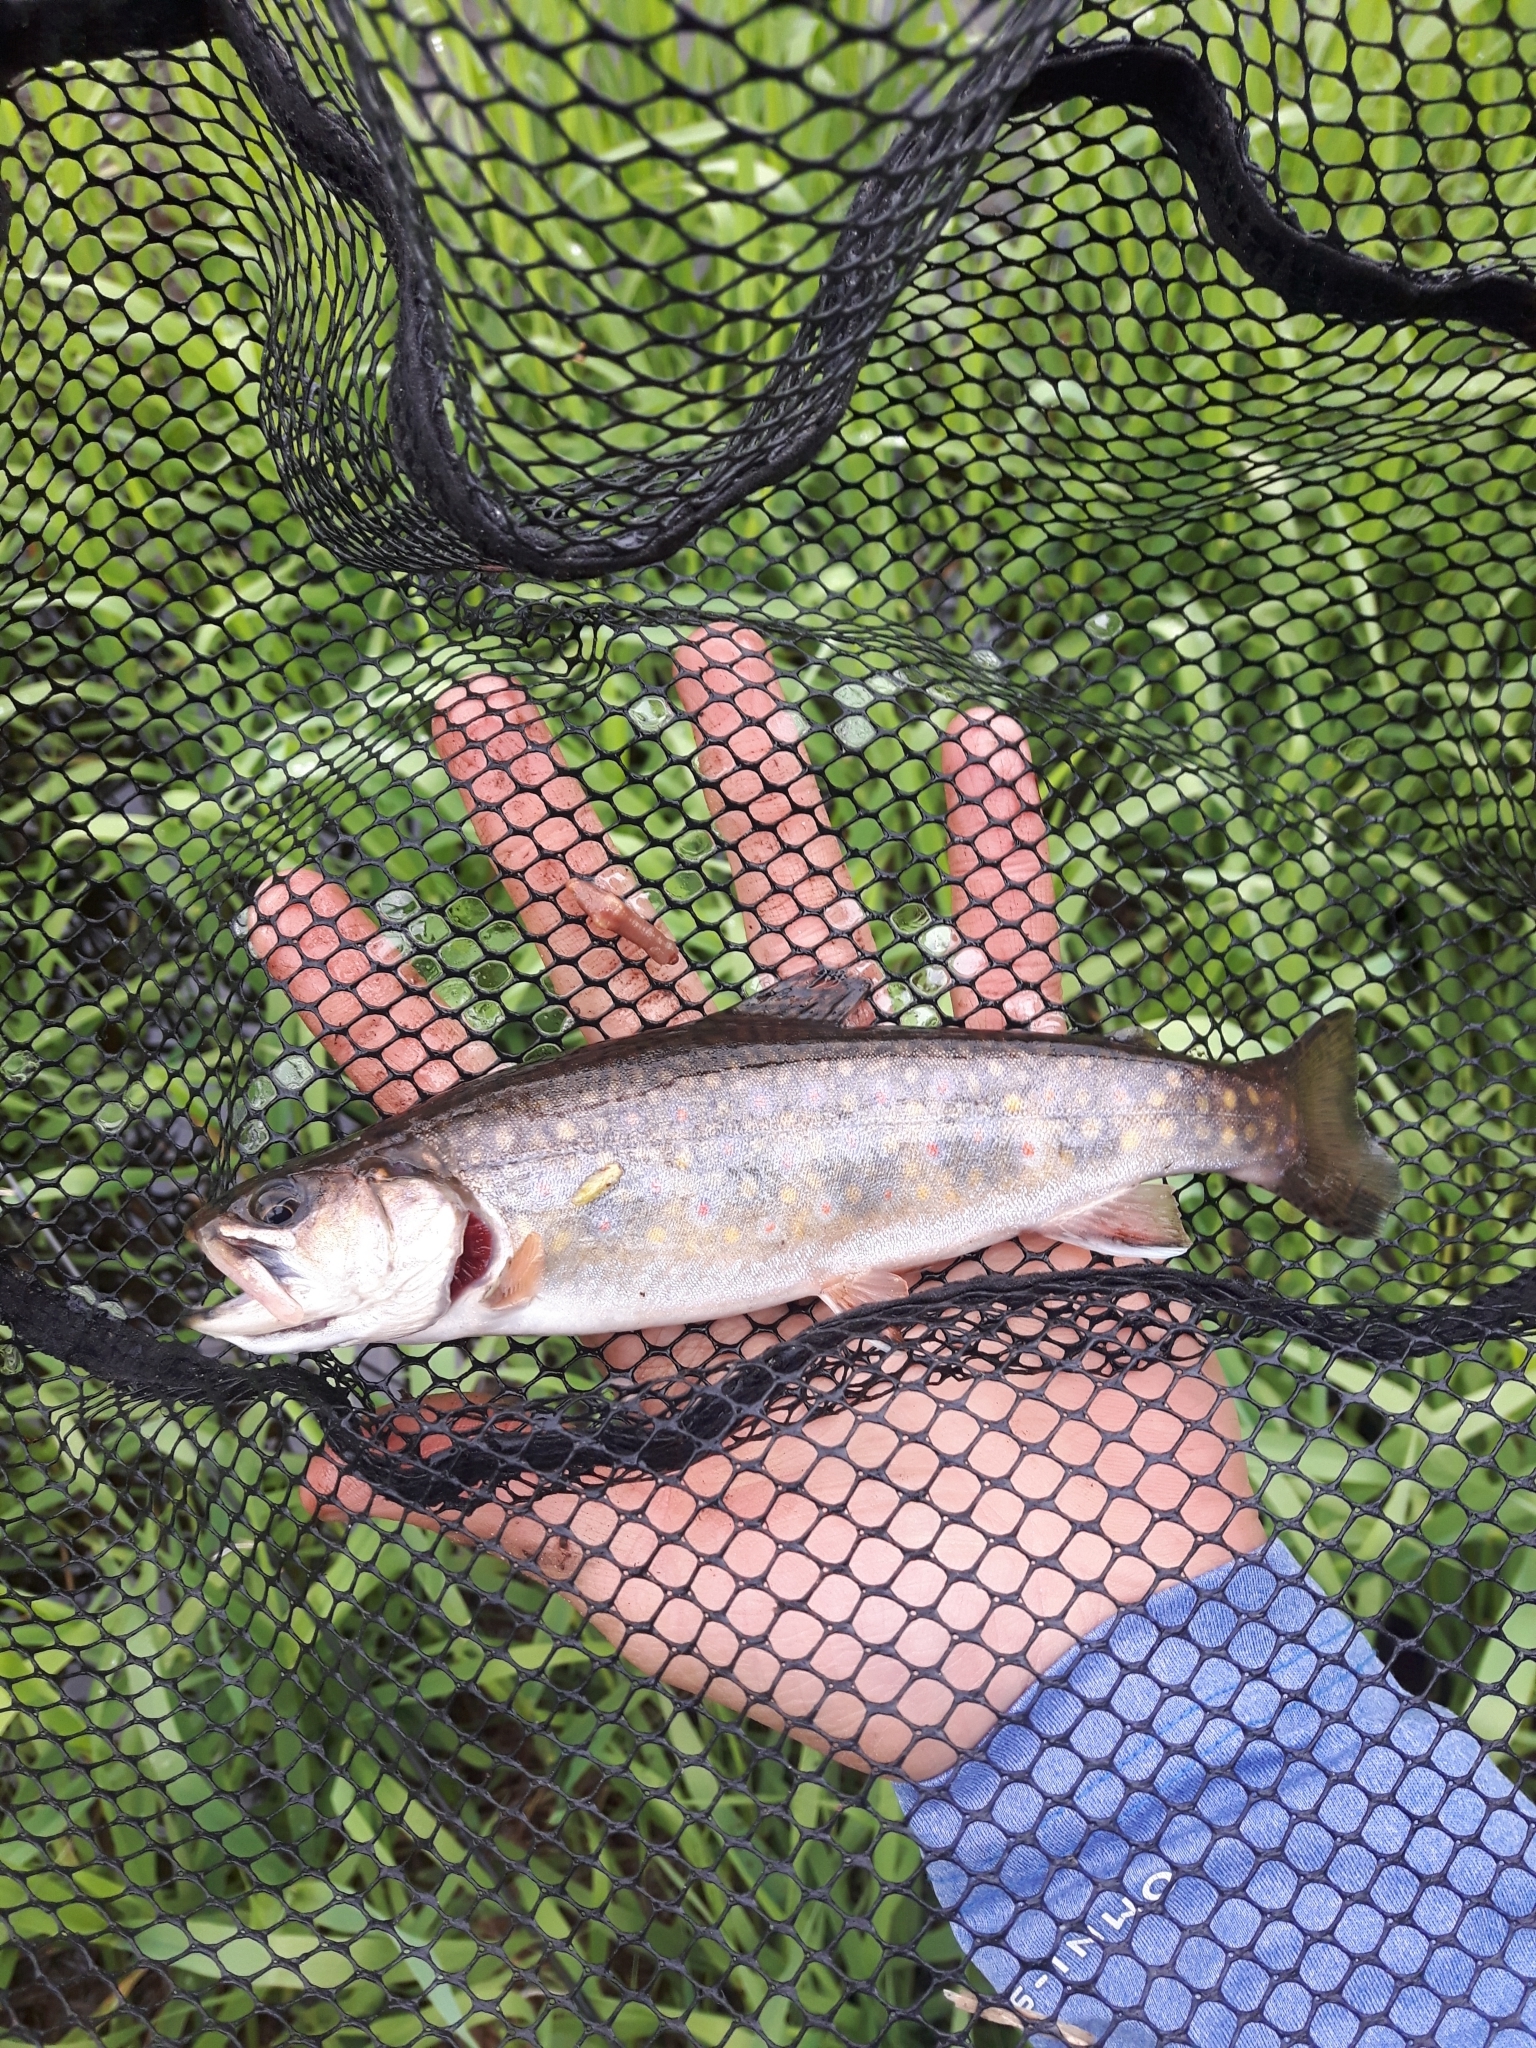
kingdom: Animalia
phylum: Chordata
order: Salmoniformes
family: Salmonidae
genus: Salvelinus
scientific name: Salvelinus fontinalis
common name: Brook trout
